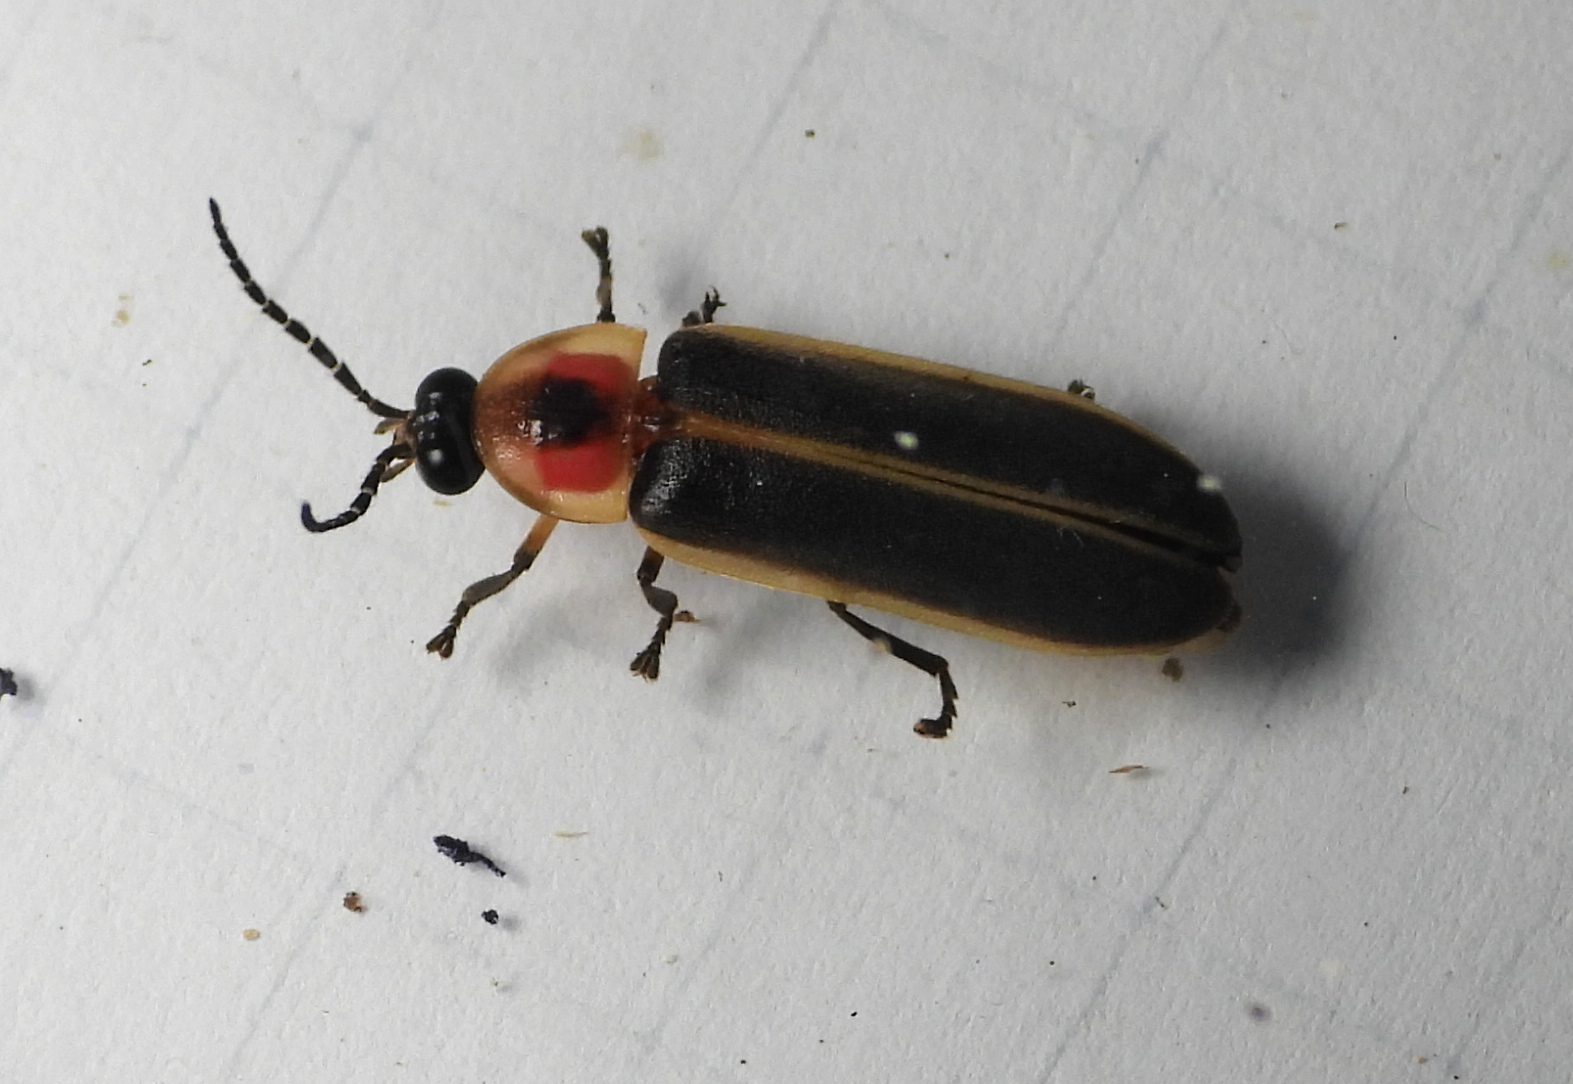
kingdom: Animalia
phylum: Arthropoda
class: Insecta
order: Coleoptera
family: Lampyridae
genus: Photinus
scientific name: Photinus pyralis
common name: Big dipper firefly
